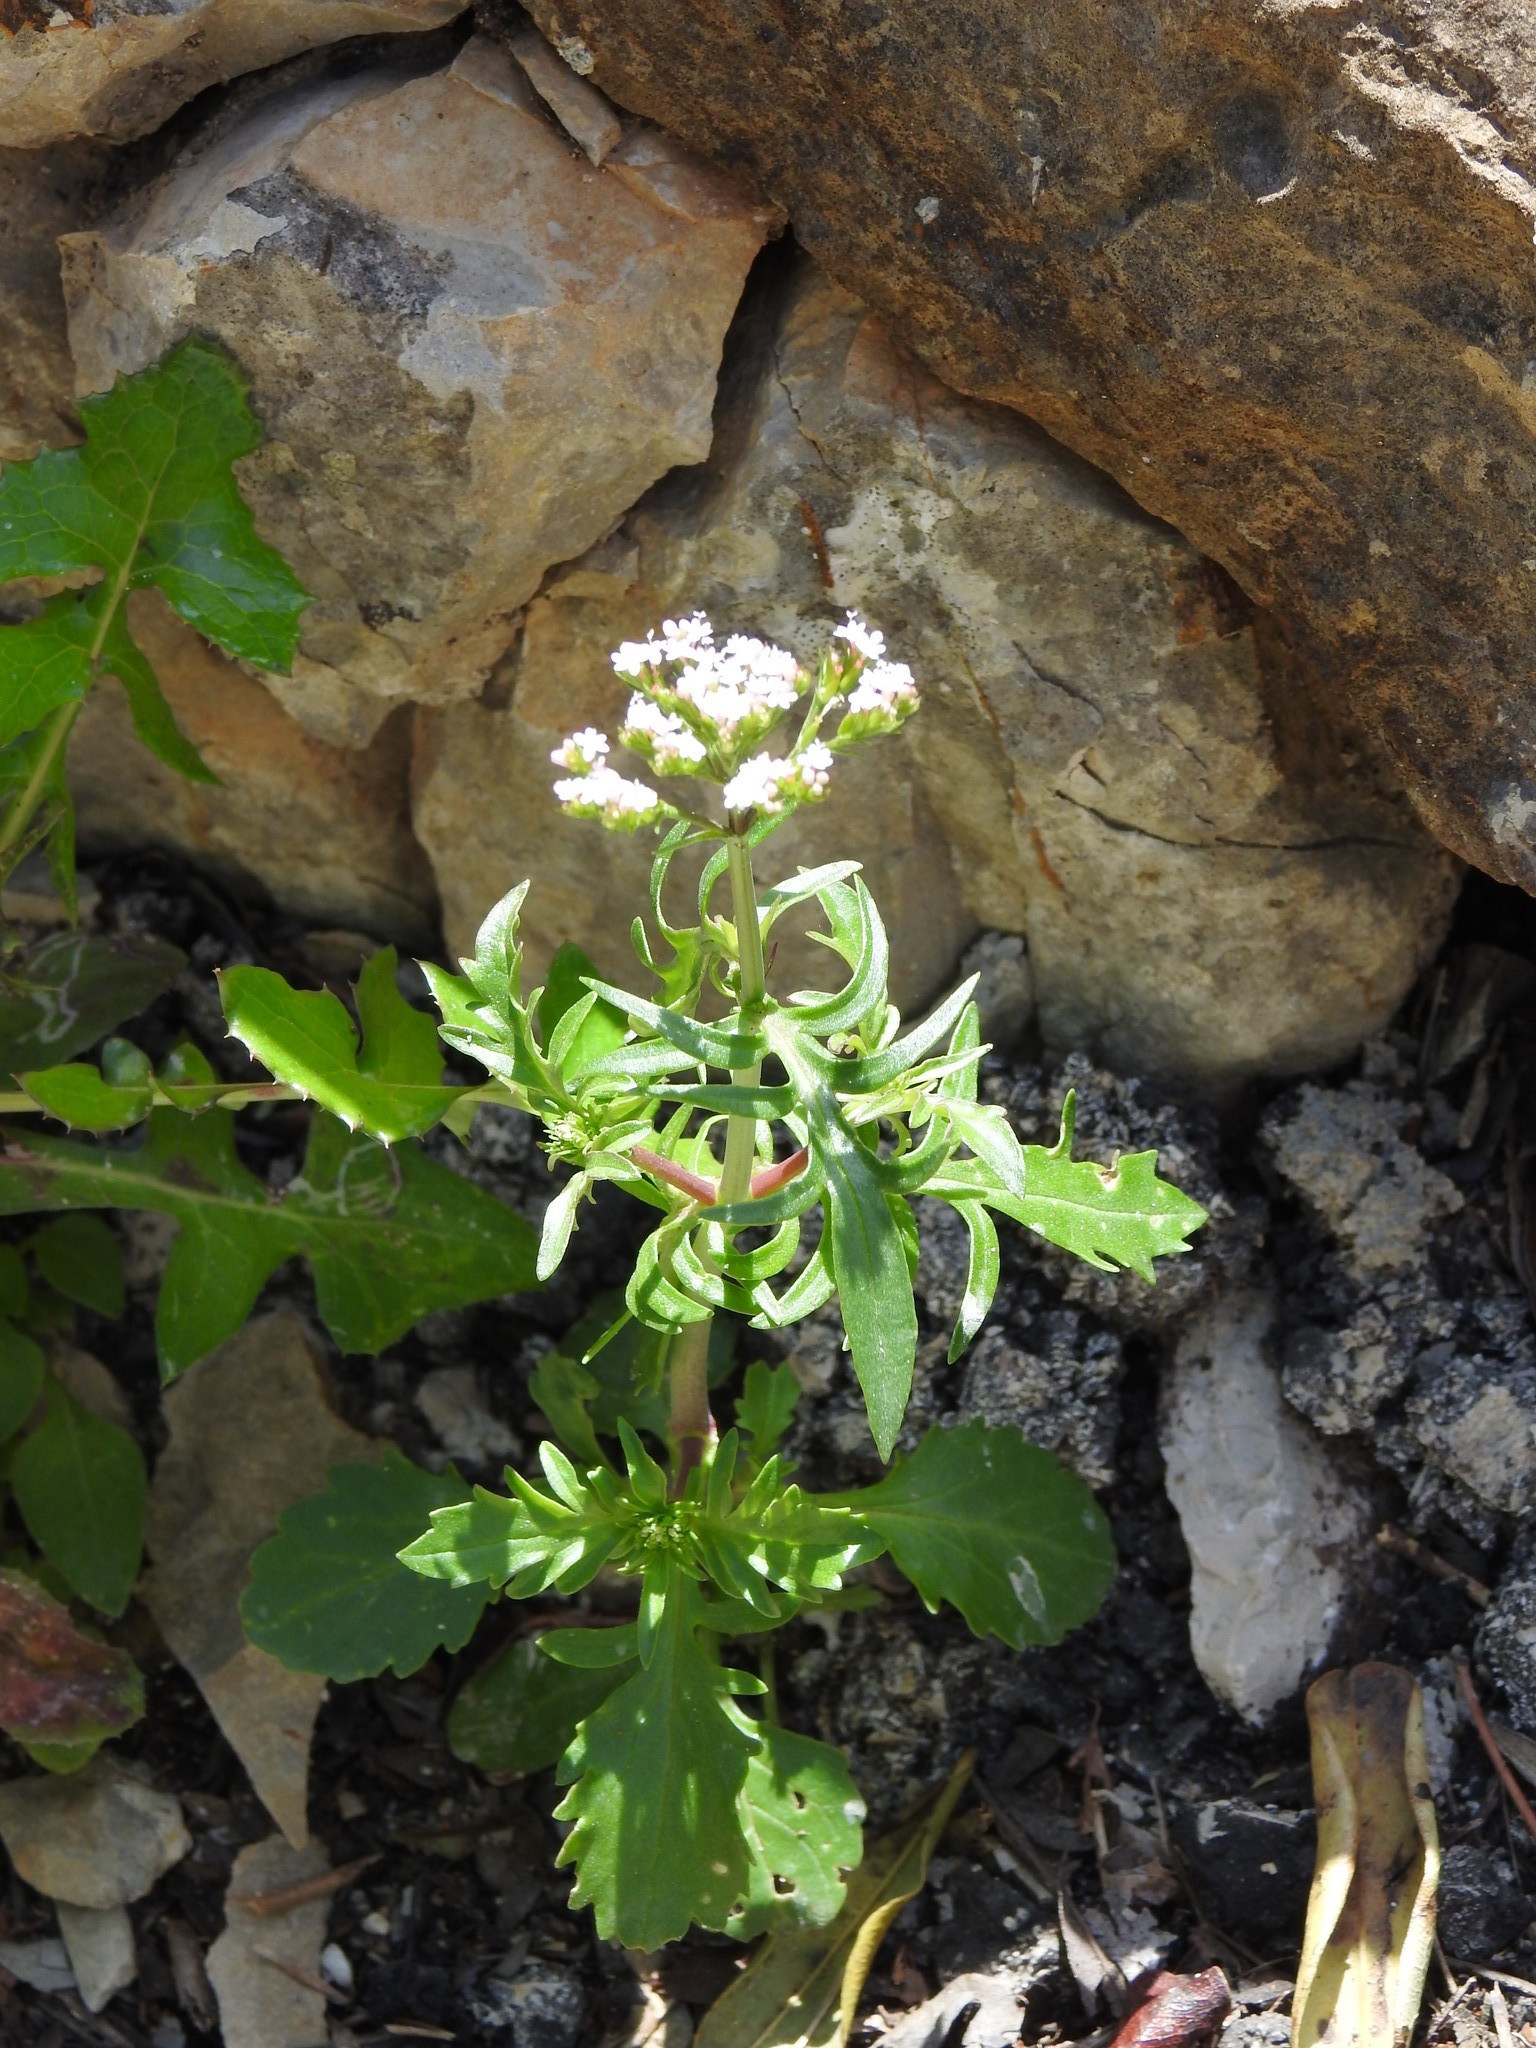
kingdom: Plantae
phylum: Tracheophyta
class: Magnoliopsida
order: Dipsacales
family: Caprifoliaceae
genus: Centranthus
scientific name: Centranthus calcitrapae
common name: Annual valerian
